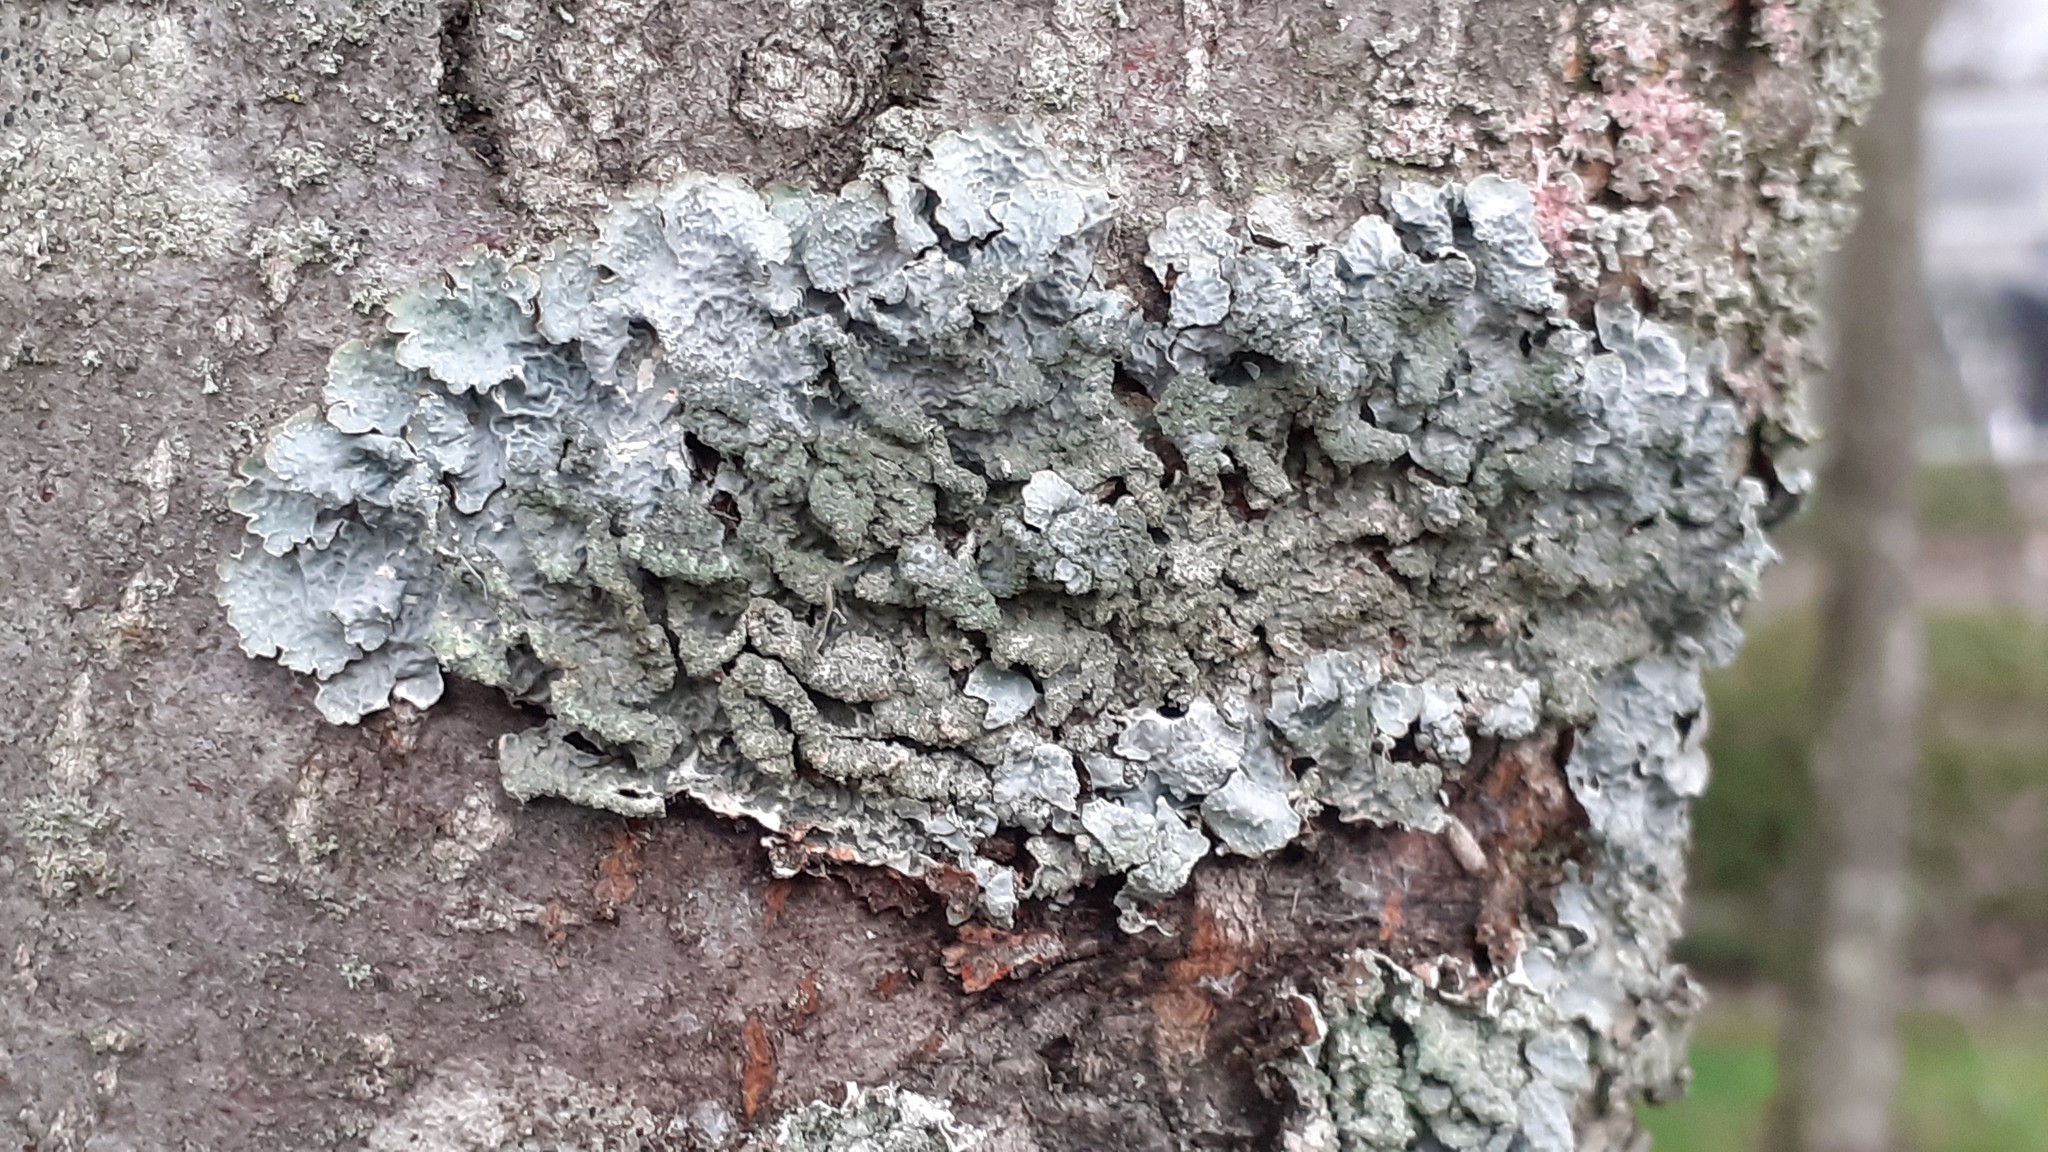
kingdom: Fungi
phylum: Ascomycota
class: Lecanoromycetes
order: Lecanorales
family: Parmeliaceae
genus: Parmelia
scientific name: Parmelia sulcata
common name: Netted shield lichen
